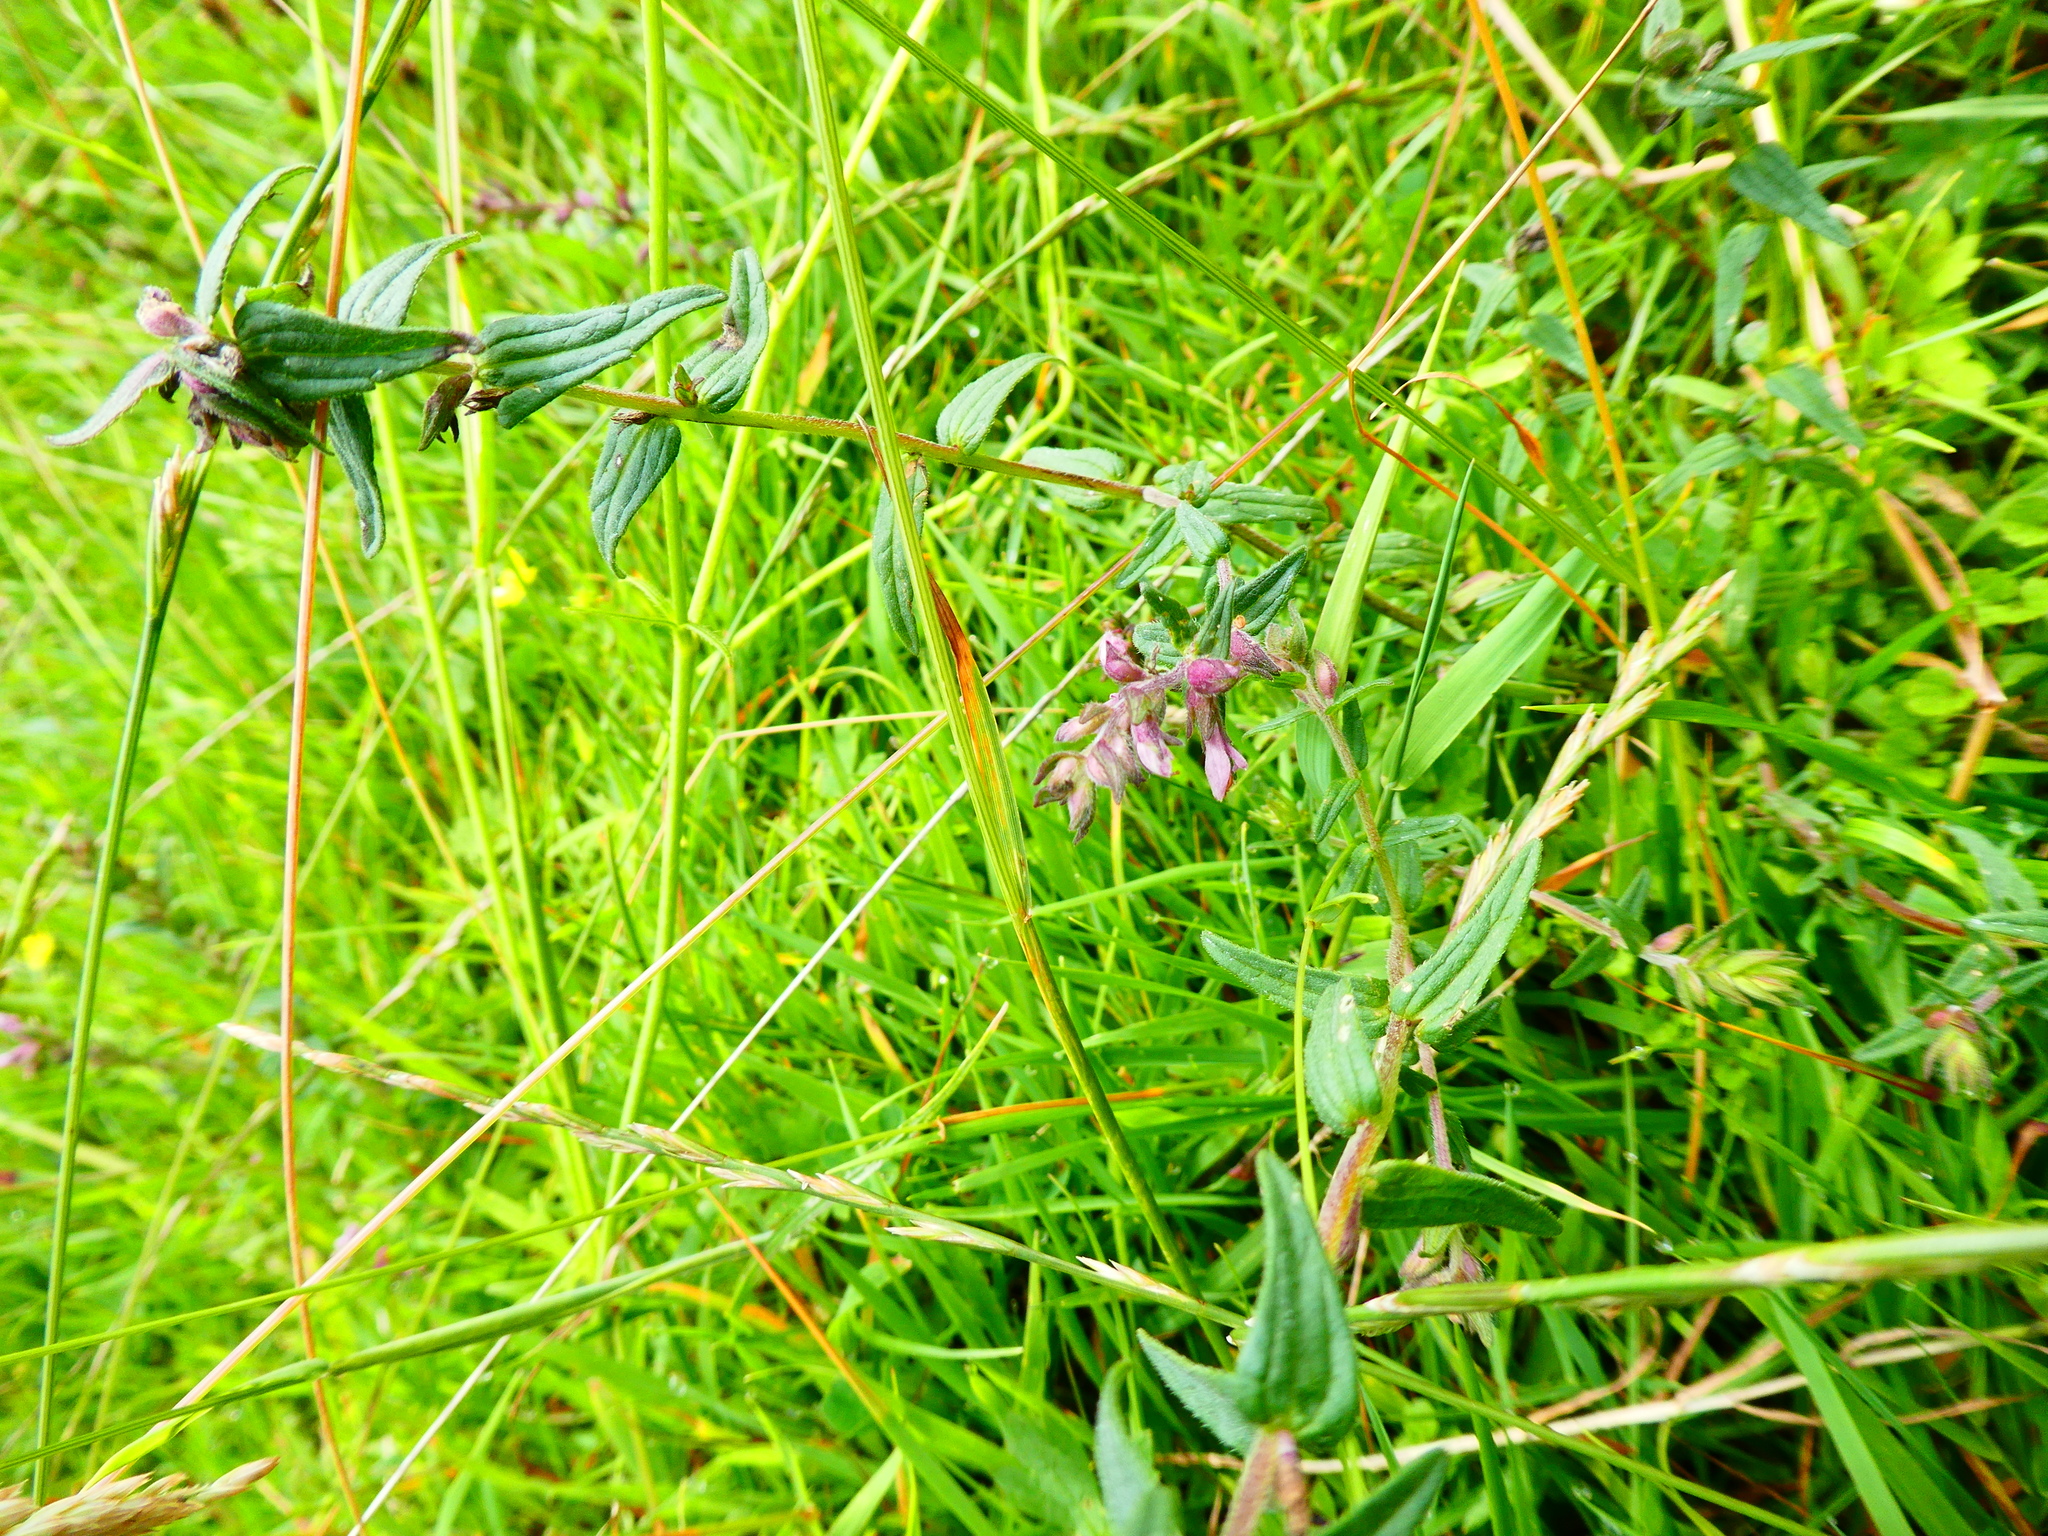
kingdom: Plantae
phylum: Tracheophyta
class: Magnoliopsida
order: Lamiales
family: Orobanchaceae
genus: Odontites
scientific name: Odontites vulgaris
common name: Broomrape
